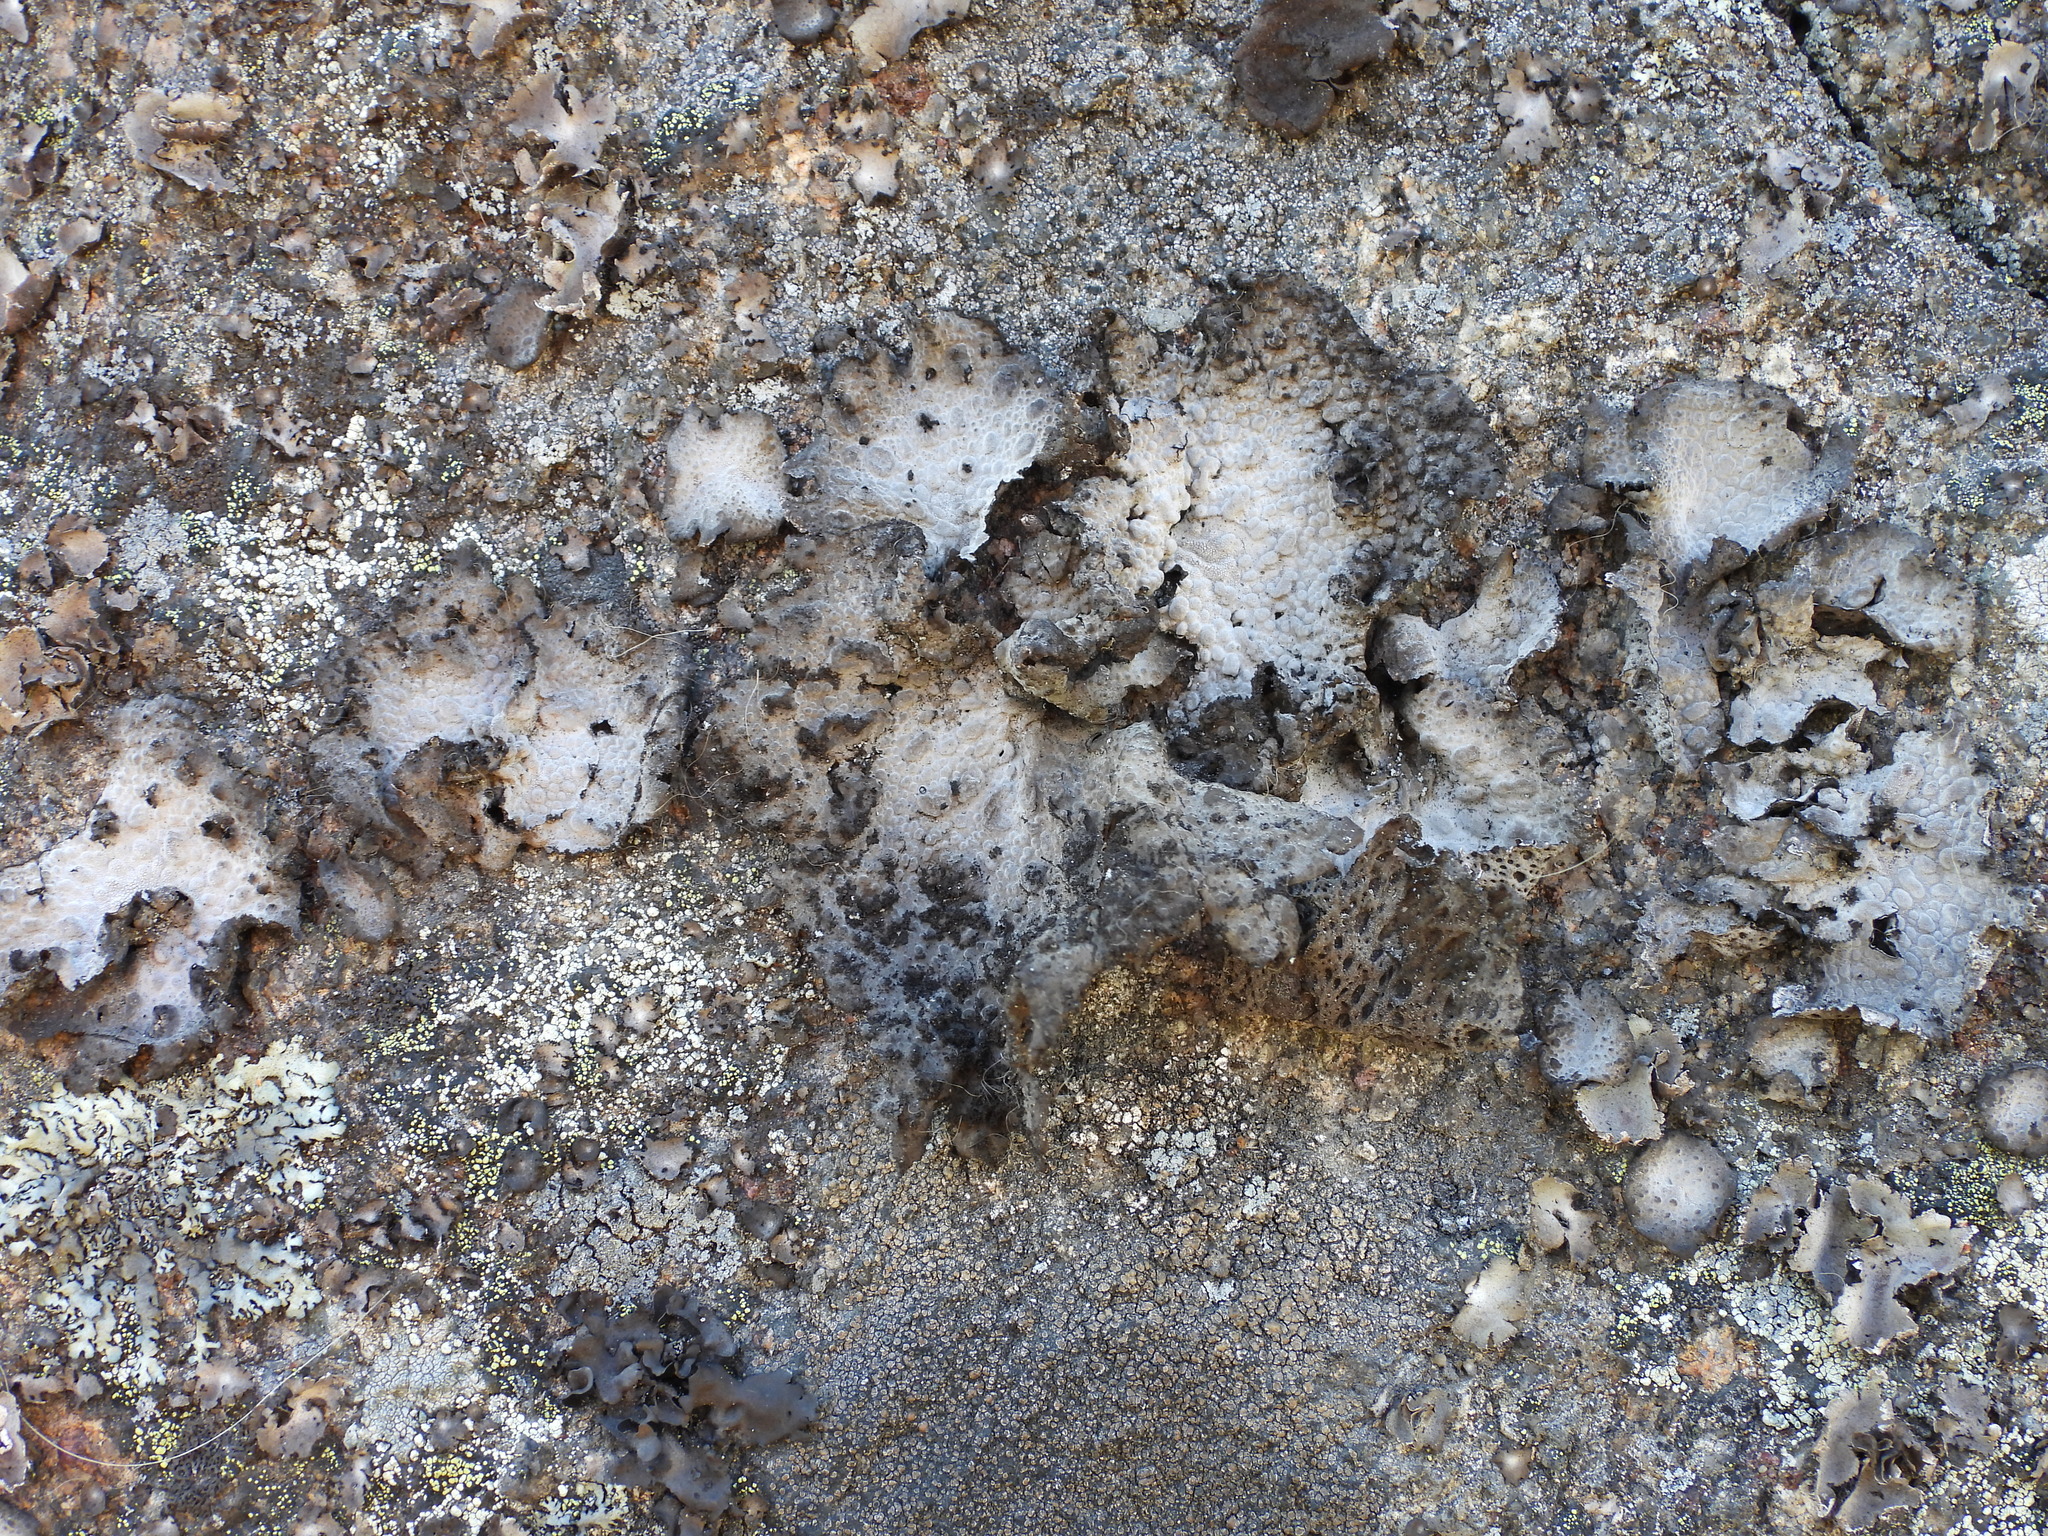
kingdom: Fungi
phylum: Ascomycota
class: Lecanoromycetes
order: Umbilicariales
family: Umbilicariaceae
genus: Lasallia
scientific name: Lasallia pustulata
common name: Blistered toadskin lichen
